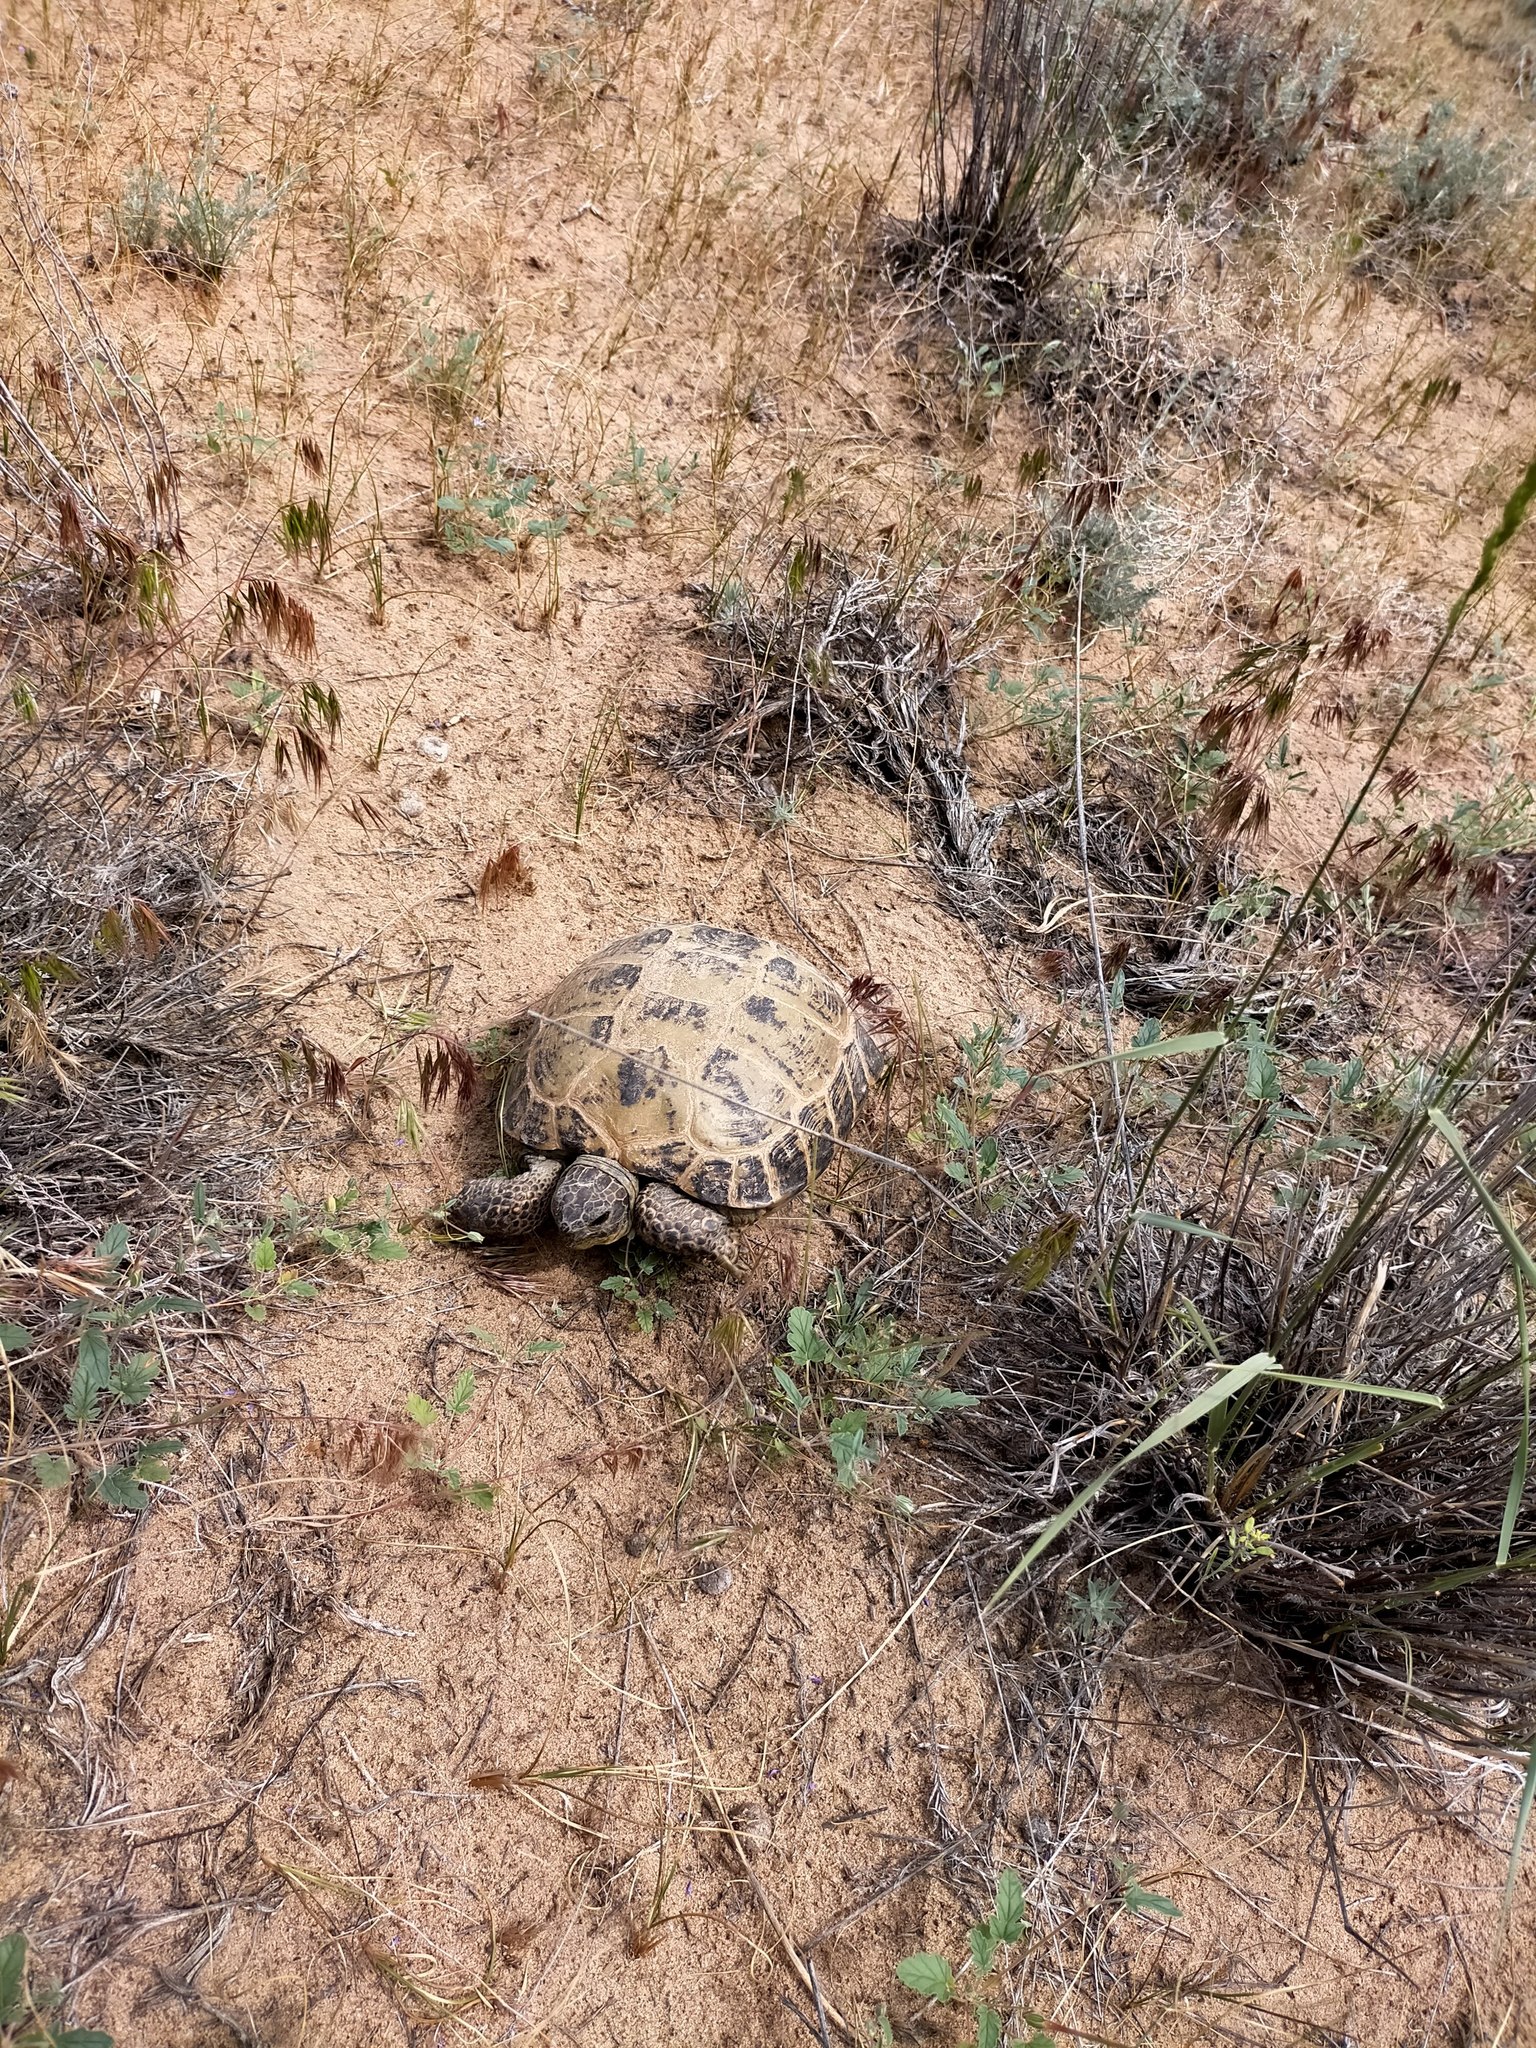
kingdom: Animalia
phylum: Chordata
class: Testudines
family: Testudinidae
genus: Testudo
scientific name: Testudo horsfieldii
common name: Central asia tortoise
